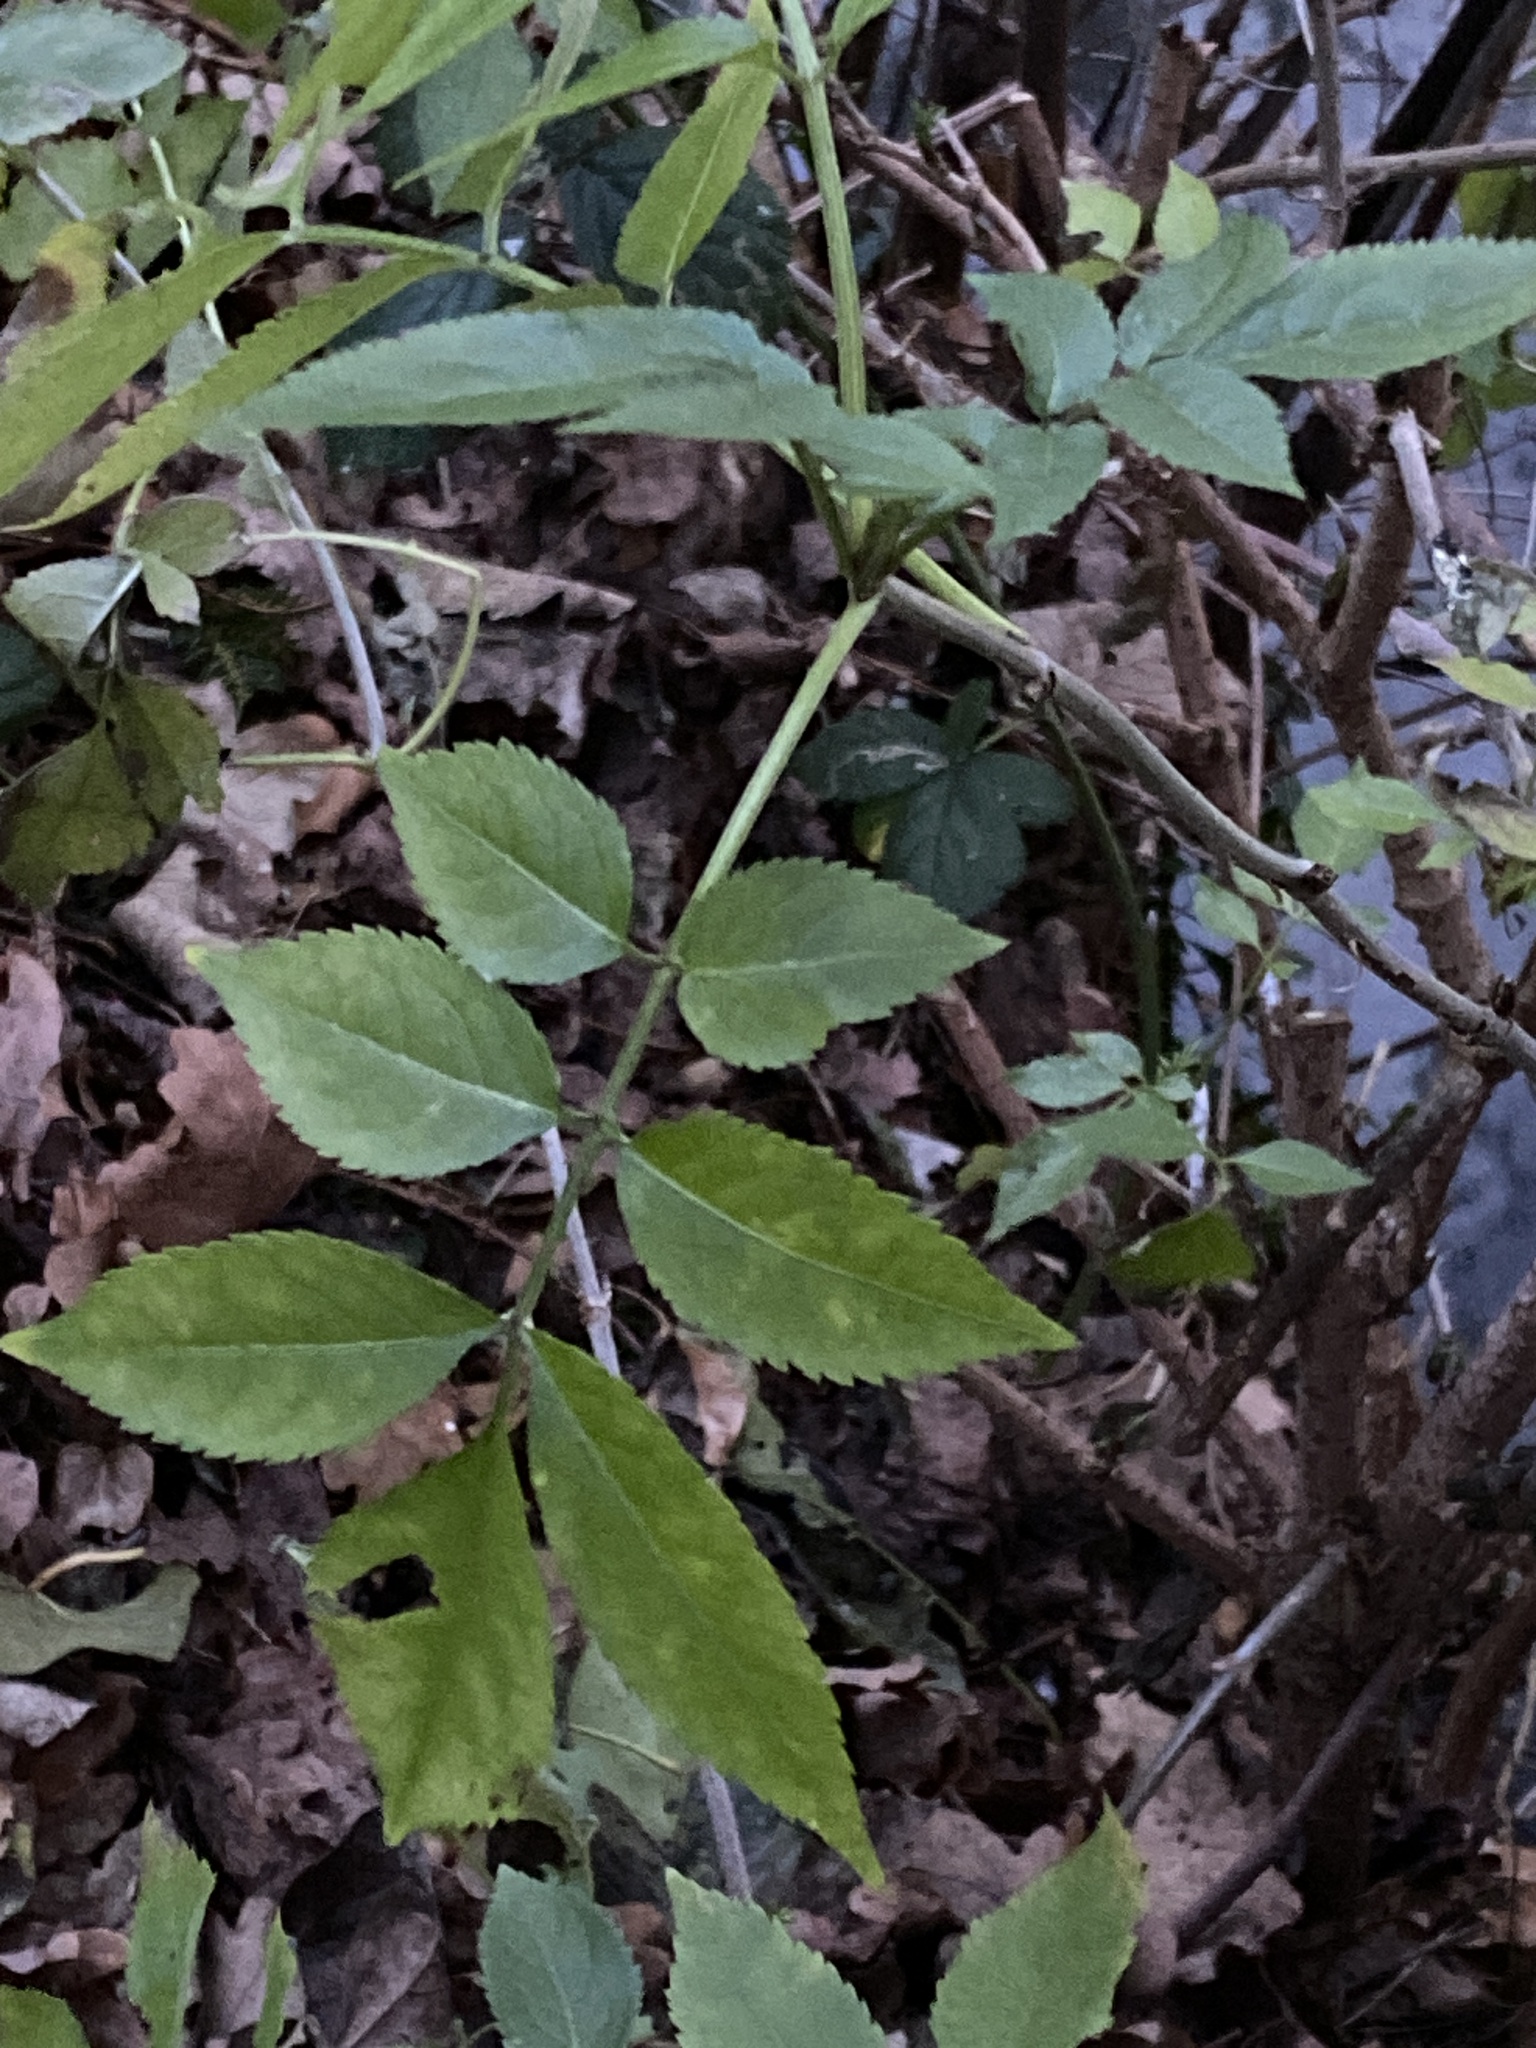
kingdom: Plantae
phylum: Tracheophyta
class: Magnoliopsida
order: Dipsacales
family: Viburnaceae
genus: Sambucus
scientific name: Sambucus nigra
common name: Elder
